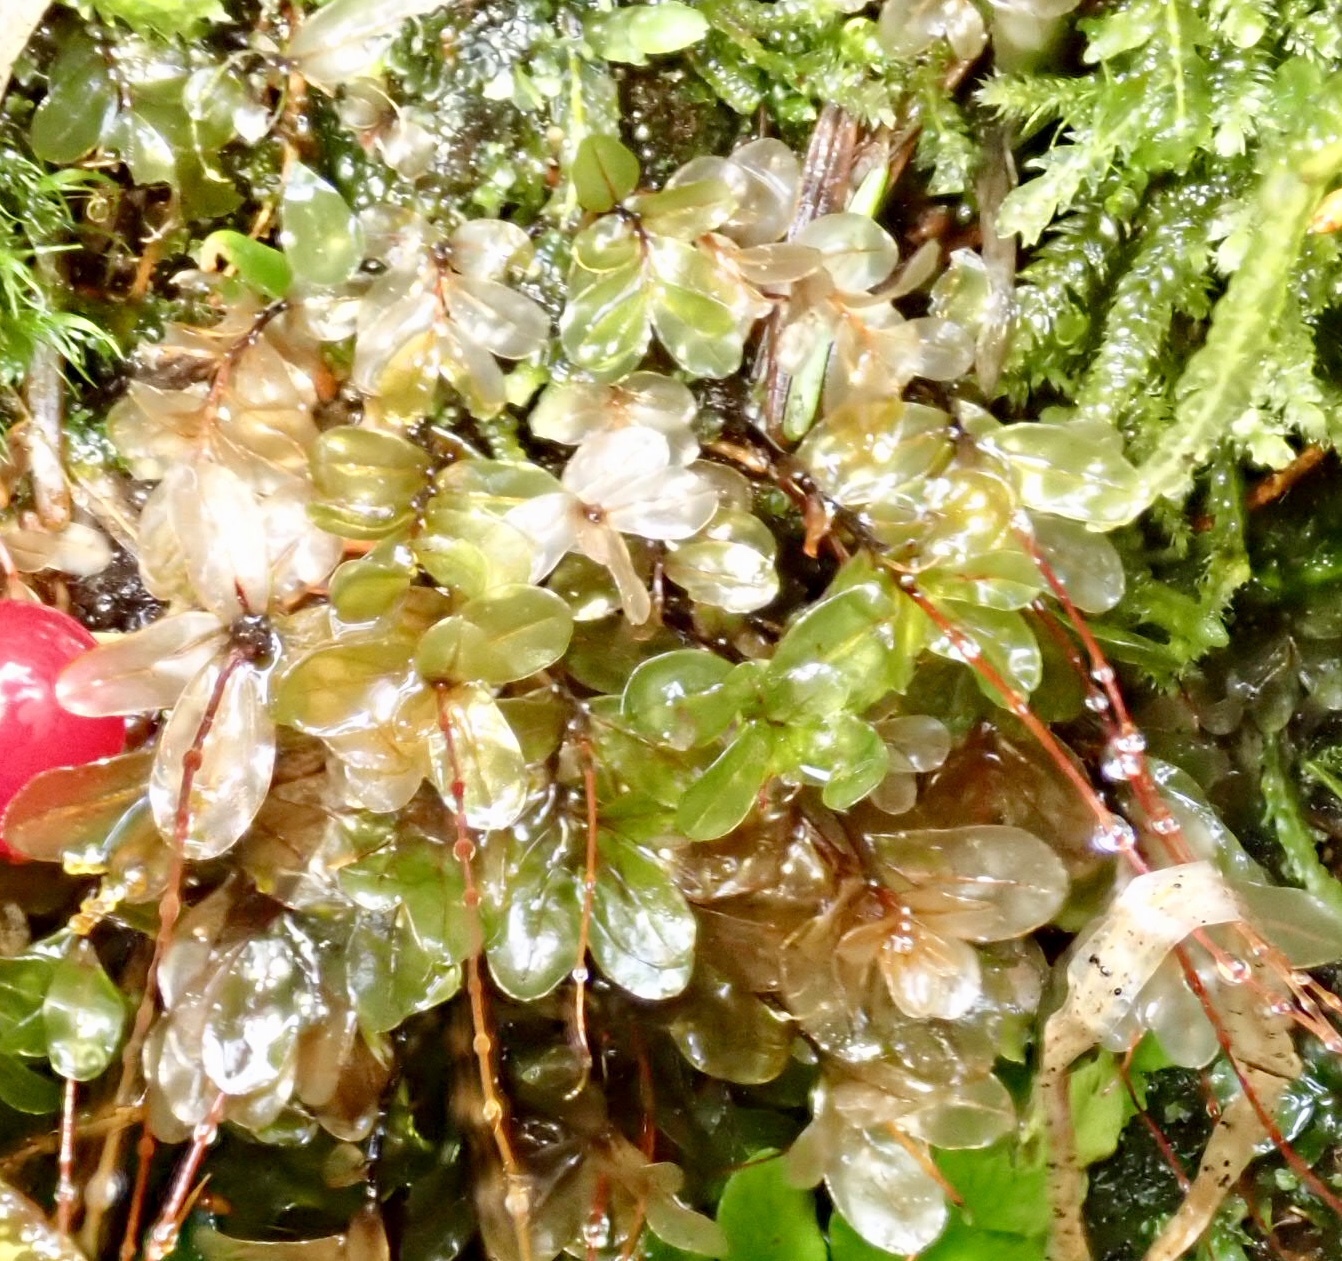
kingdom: Plantae
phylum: Bryophyta
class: Bryopsida
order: Bryales
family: Mniaceae
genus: Rhizomnium
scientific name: Rhizomnium glabrescens
